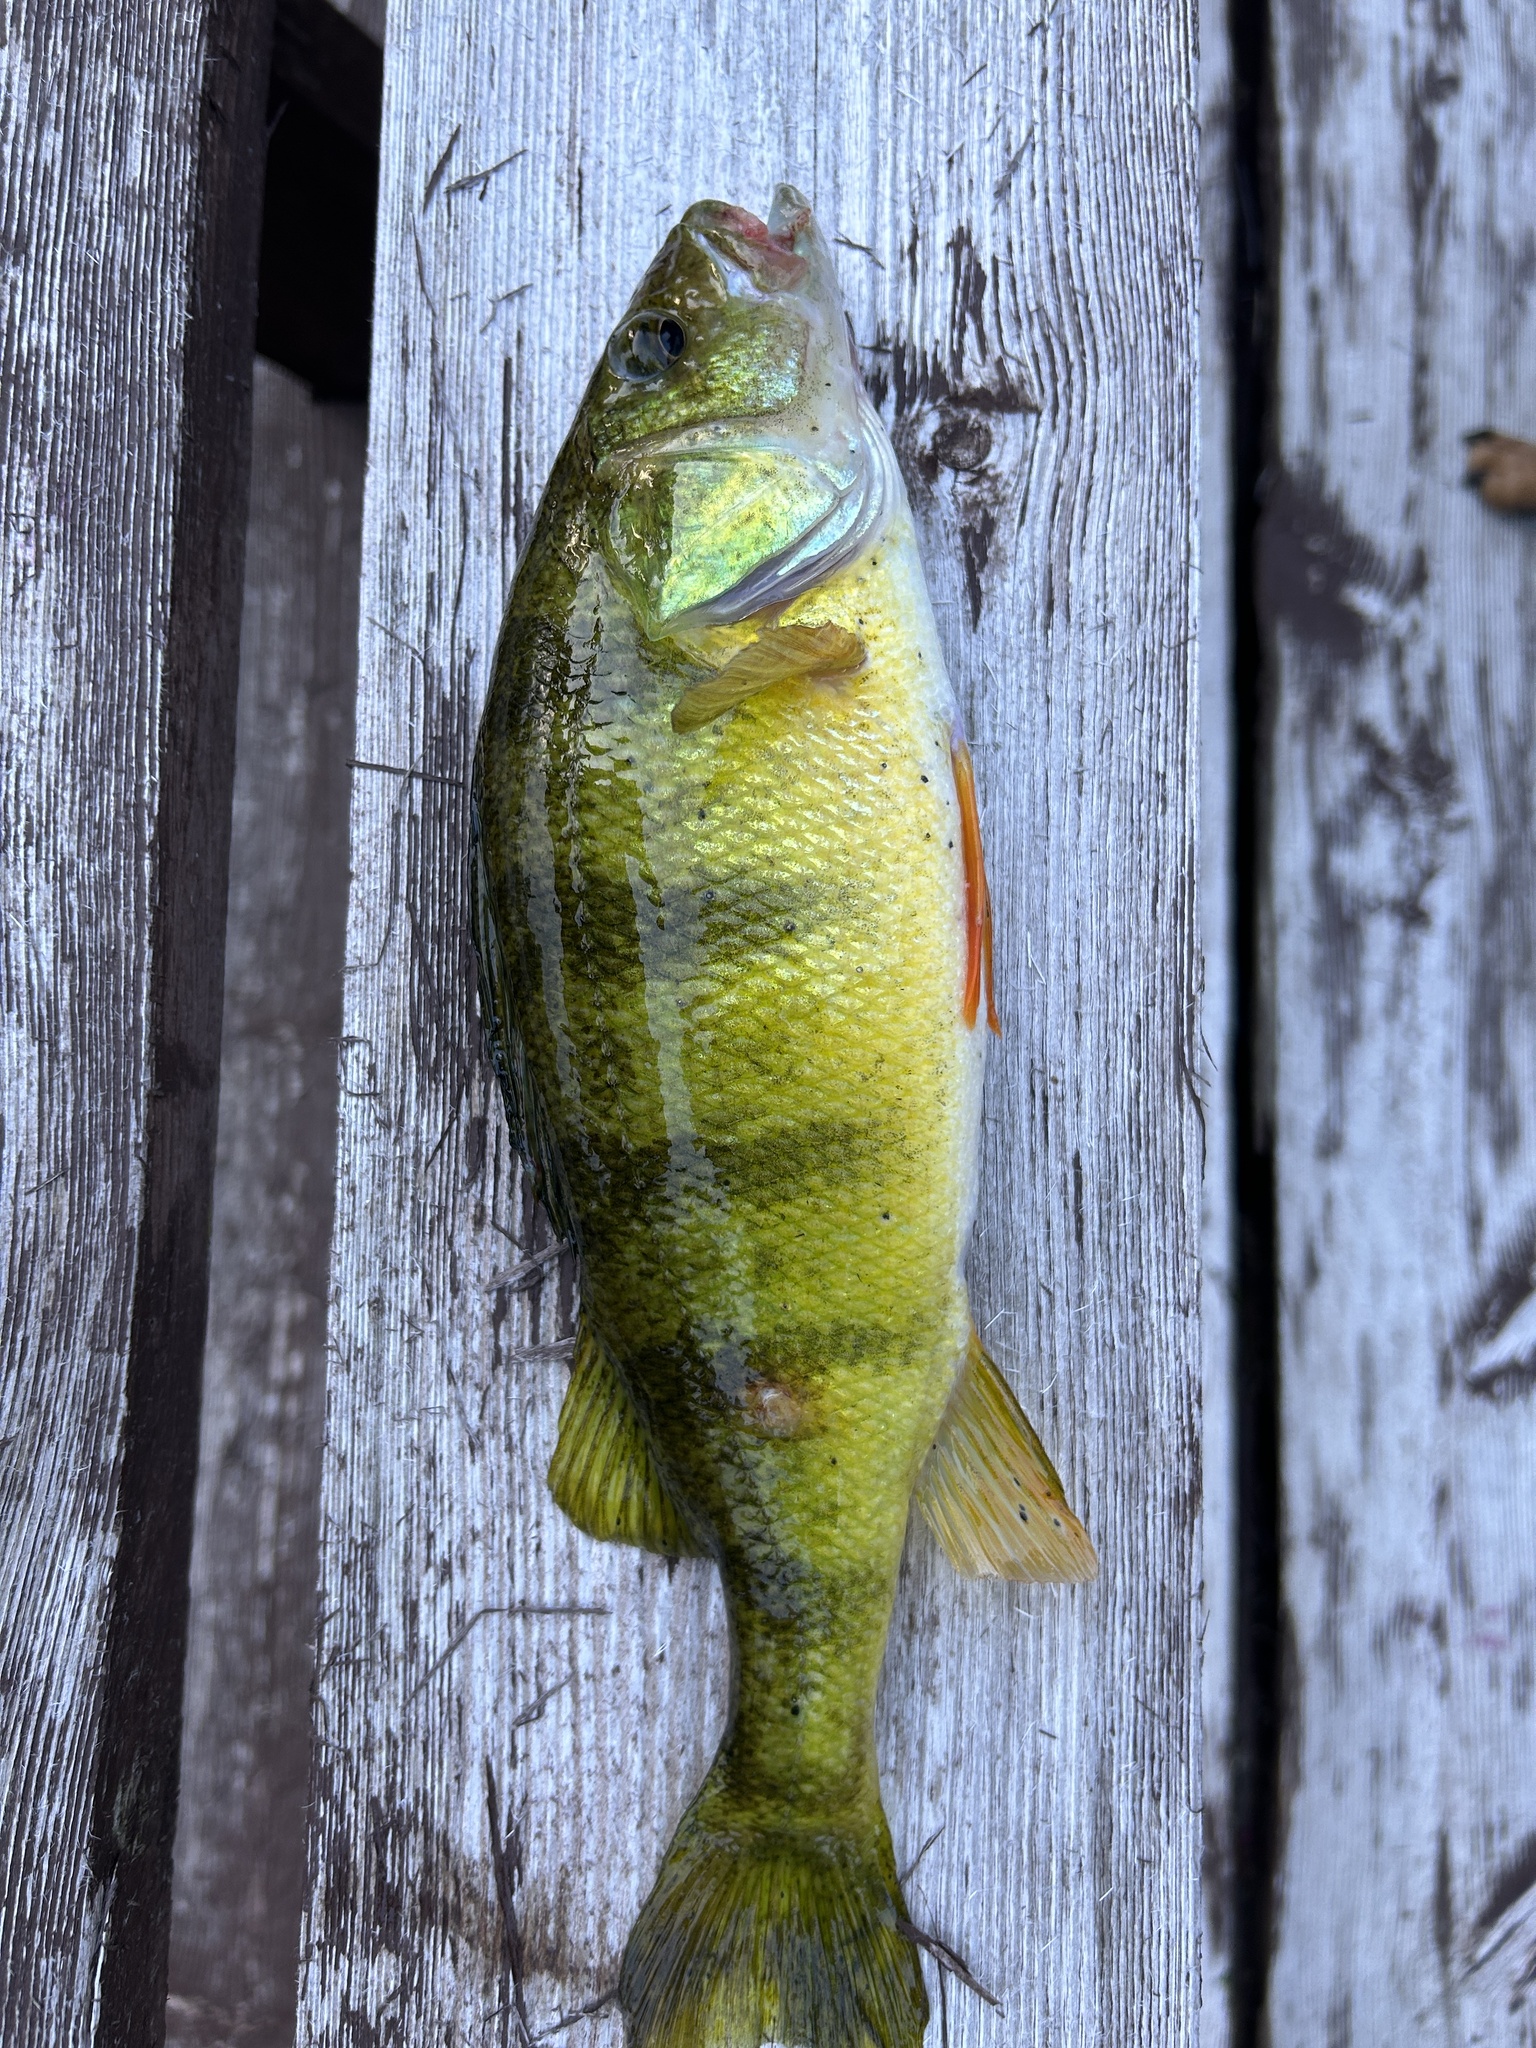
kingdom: Animalia
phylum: Chordata
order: Perciformes
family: Percidae
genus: Perca
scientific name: Perca flavescens
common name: Yellow perch
